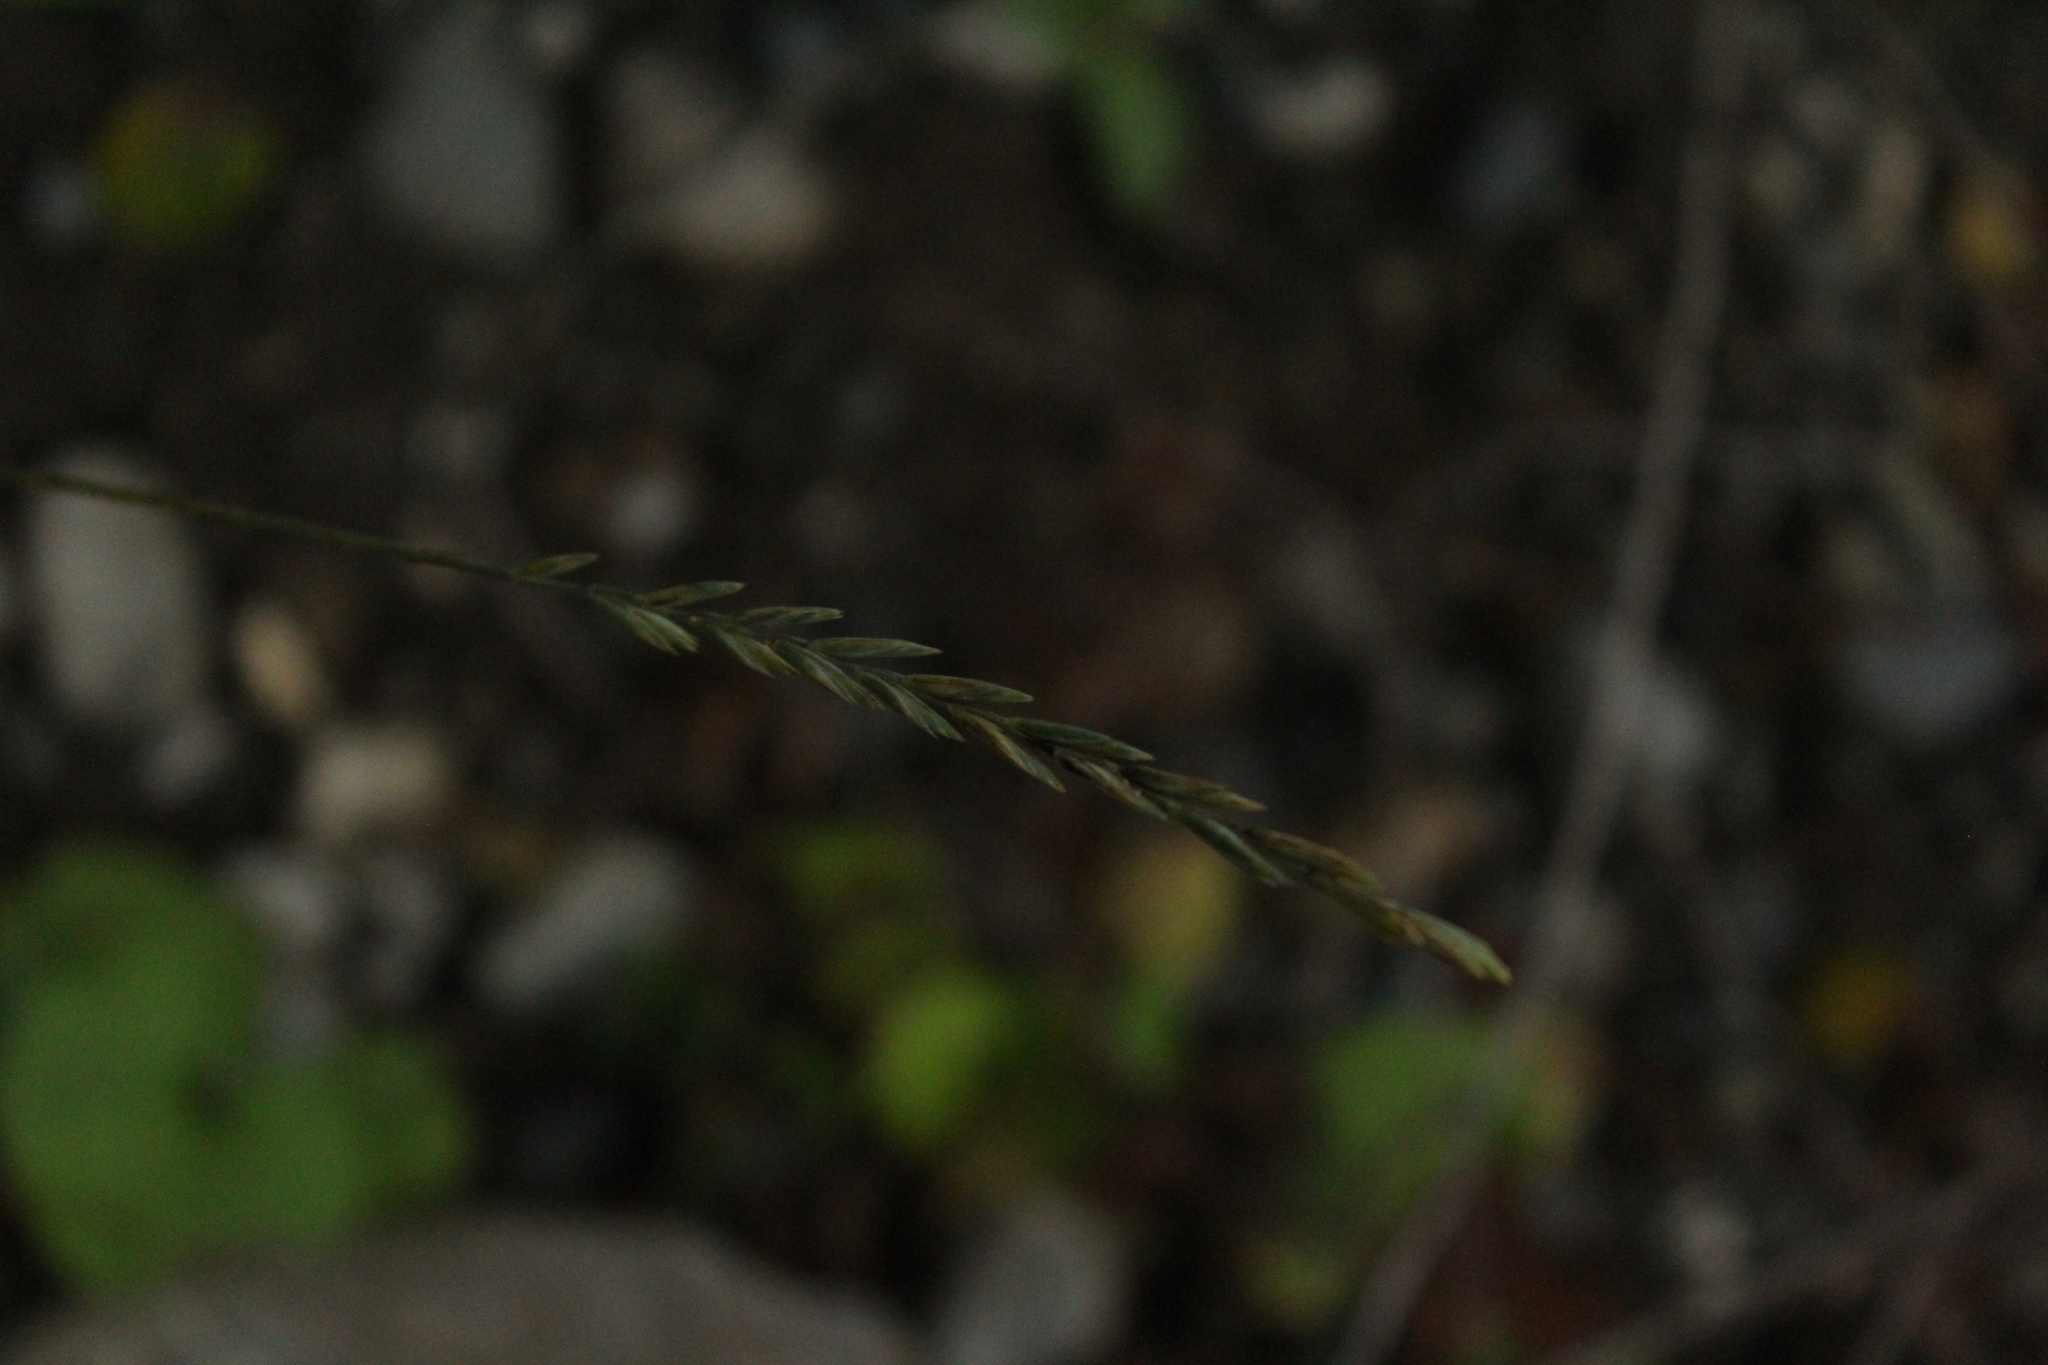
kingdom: Plantae
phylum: Tracheophyta
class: Liliopsida
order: Poales
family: Poaceae
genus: Elymus
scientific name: Elymus repens
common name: Quackgrass
